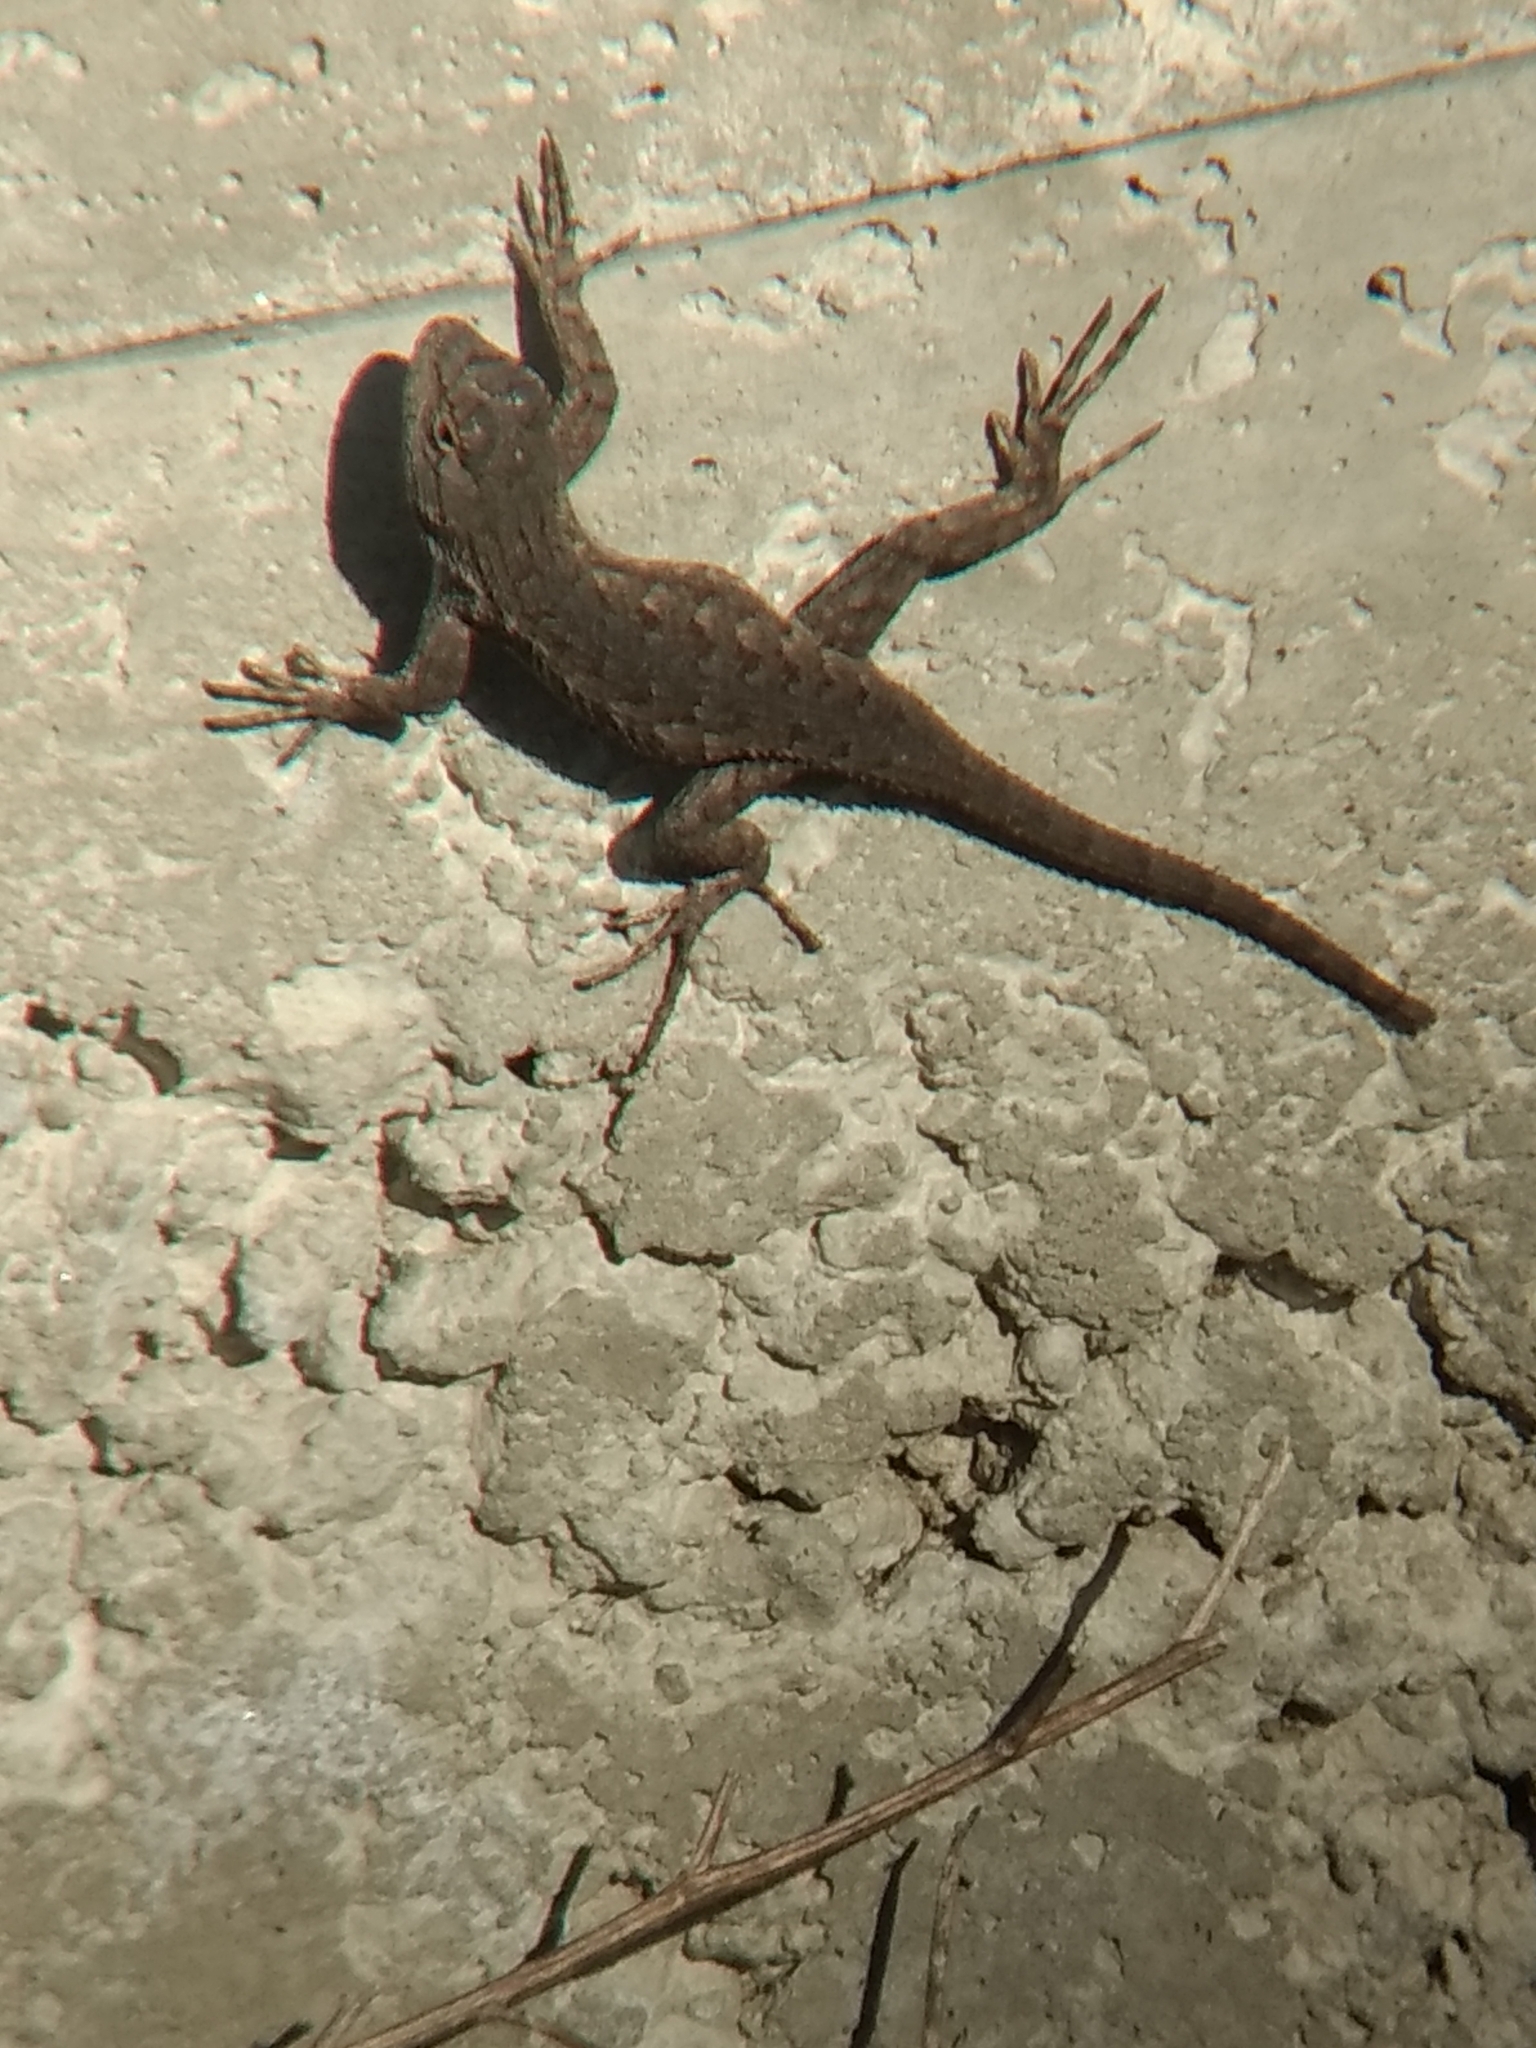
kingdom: Animalia
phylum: Chordata
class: Squamata
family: Phrynosomatidae
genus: Sceloporus
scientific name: Sceloporus occidentalis
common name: Western fence lizard
